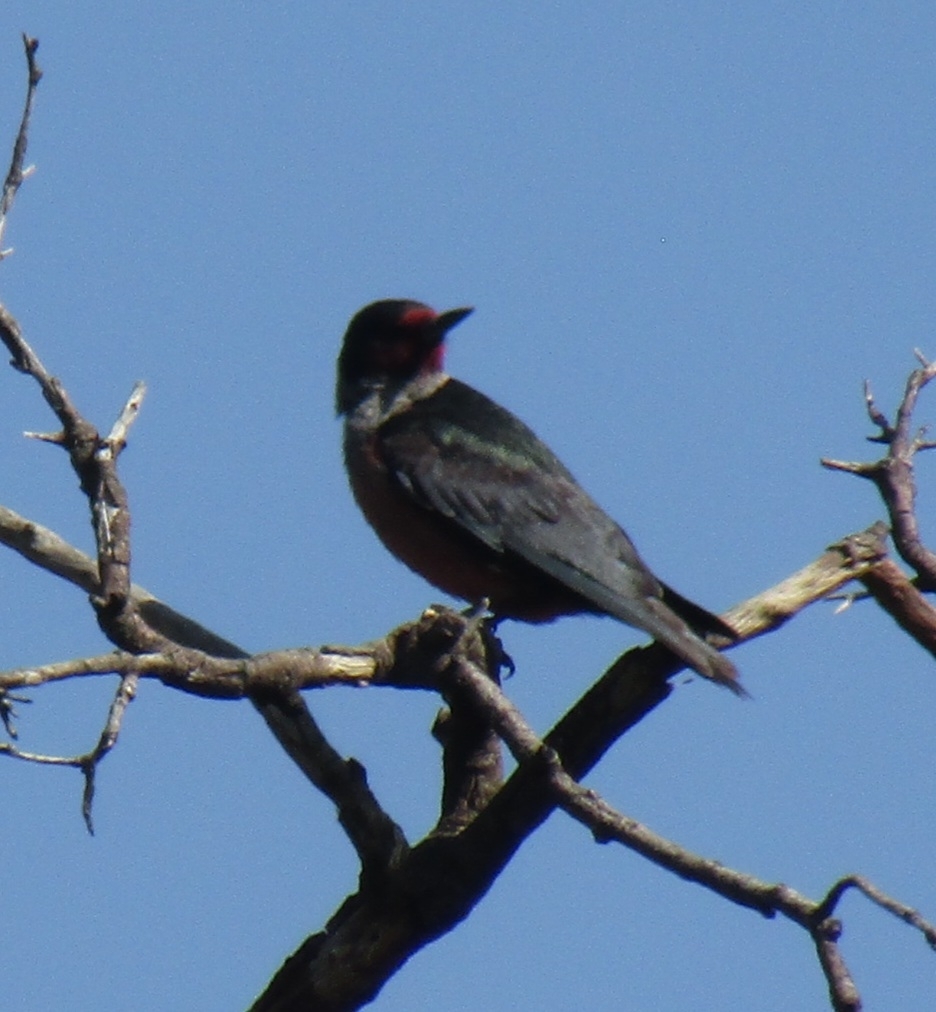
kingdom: Animalia
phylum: Chordata
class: Aves
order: Piciformes
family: Picidae
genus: Melanerpes
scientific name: Melanerpes lewis
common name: Lewis's woodpecker
